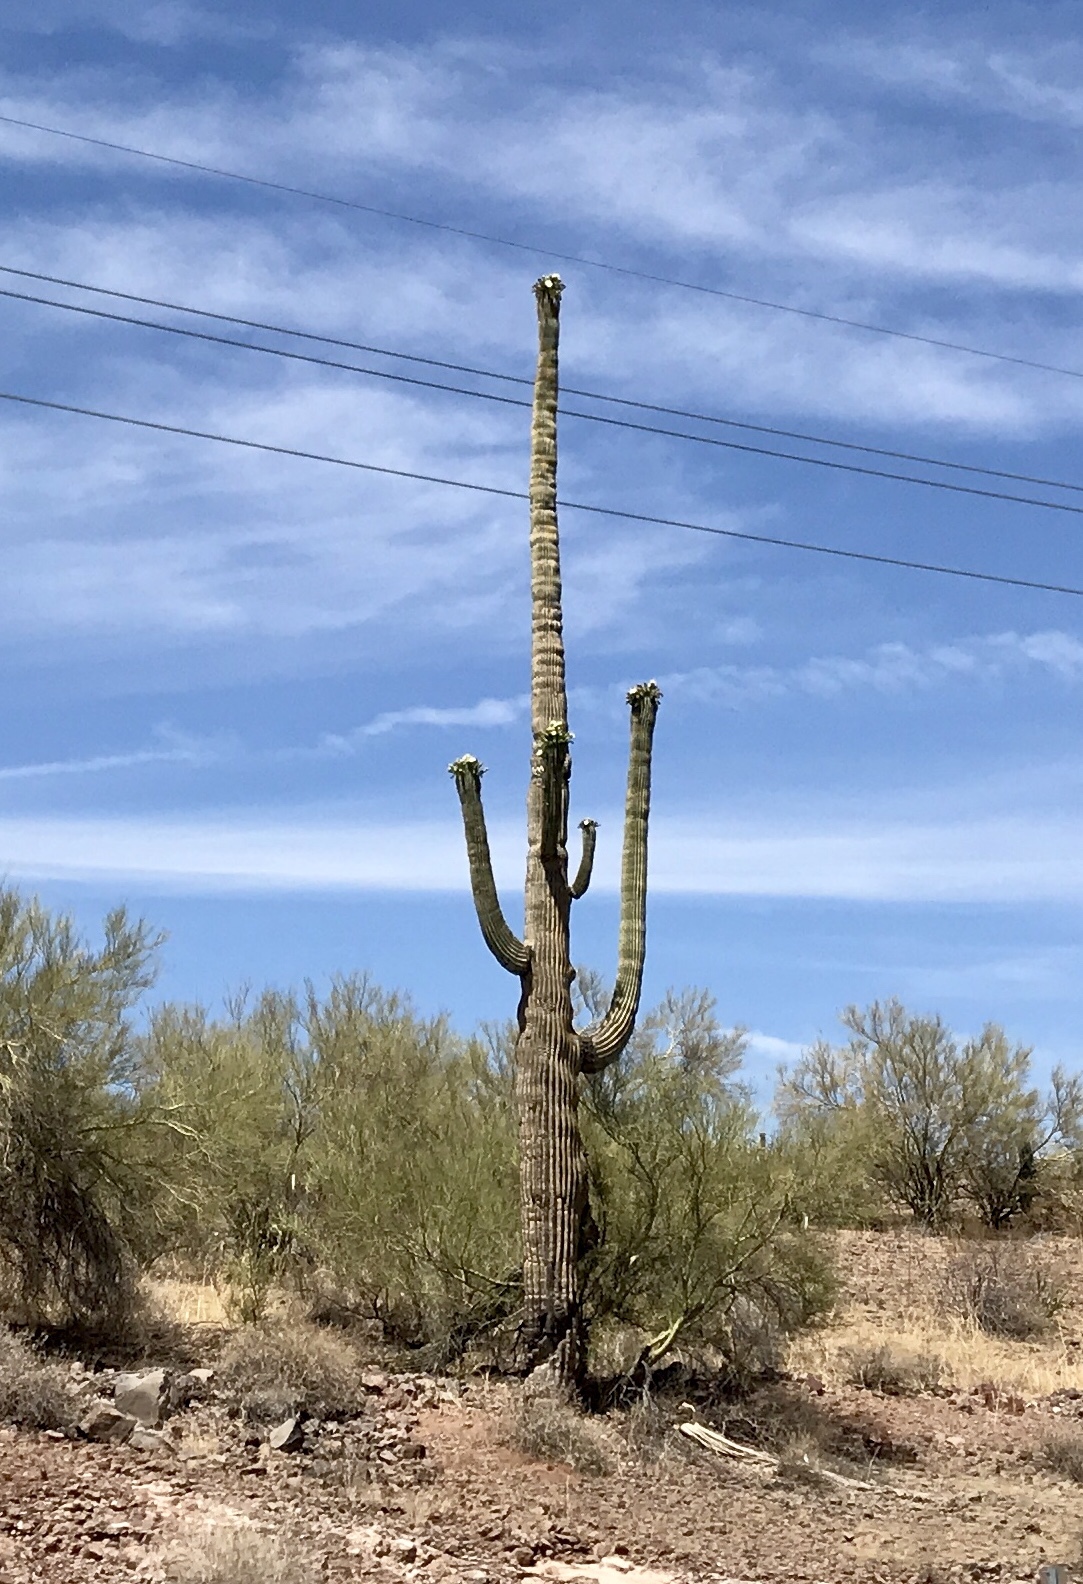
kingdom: Plantae
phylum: Tracheophyta
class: Magnoliopsida
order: Caryophyllales
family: Cactaceae
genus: Carnegiea
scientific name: Carnegiea gigantea
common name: Saguaro
